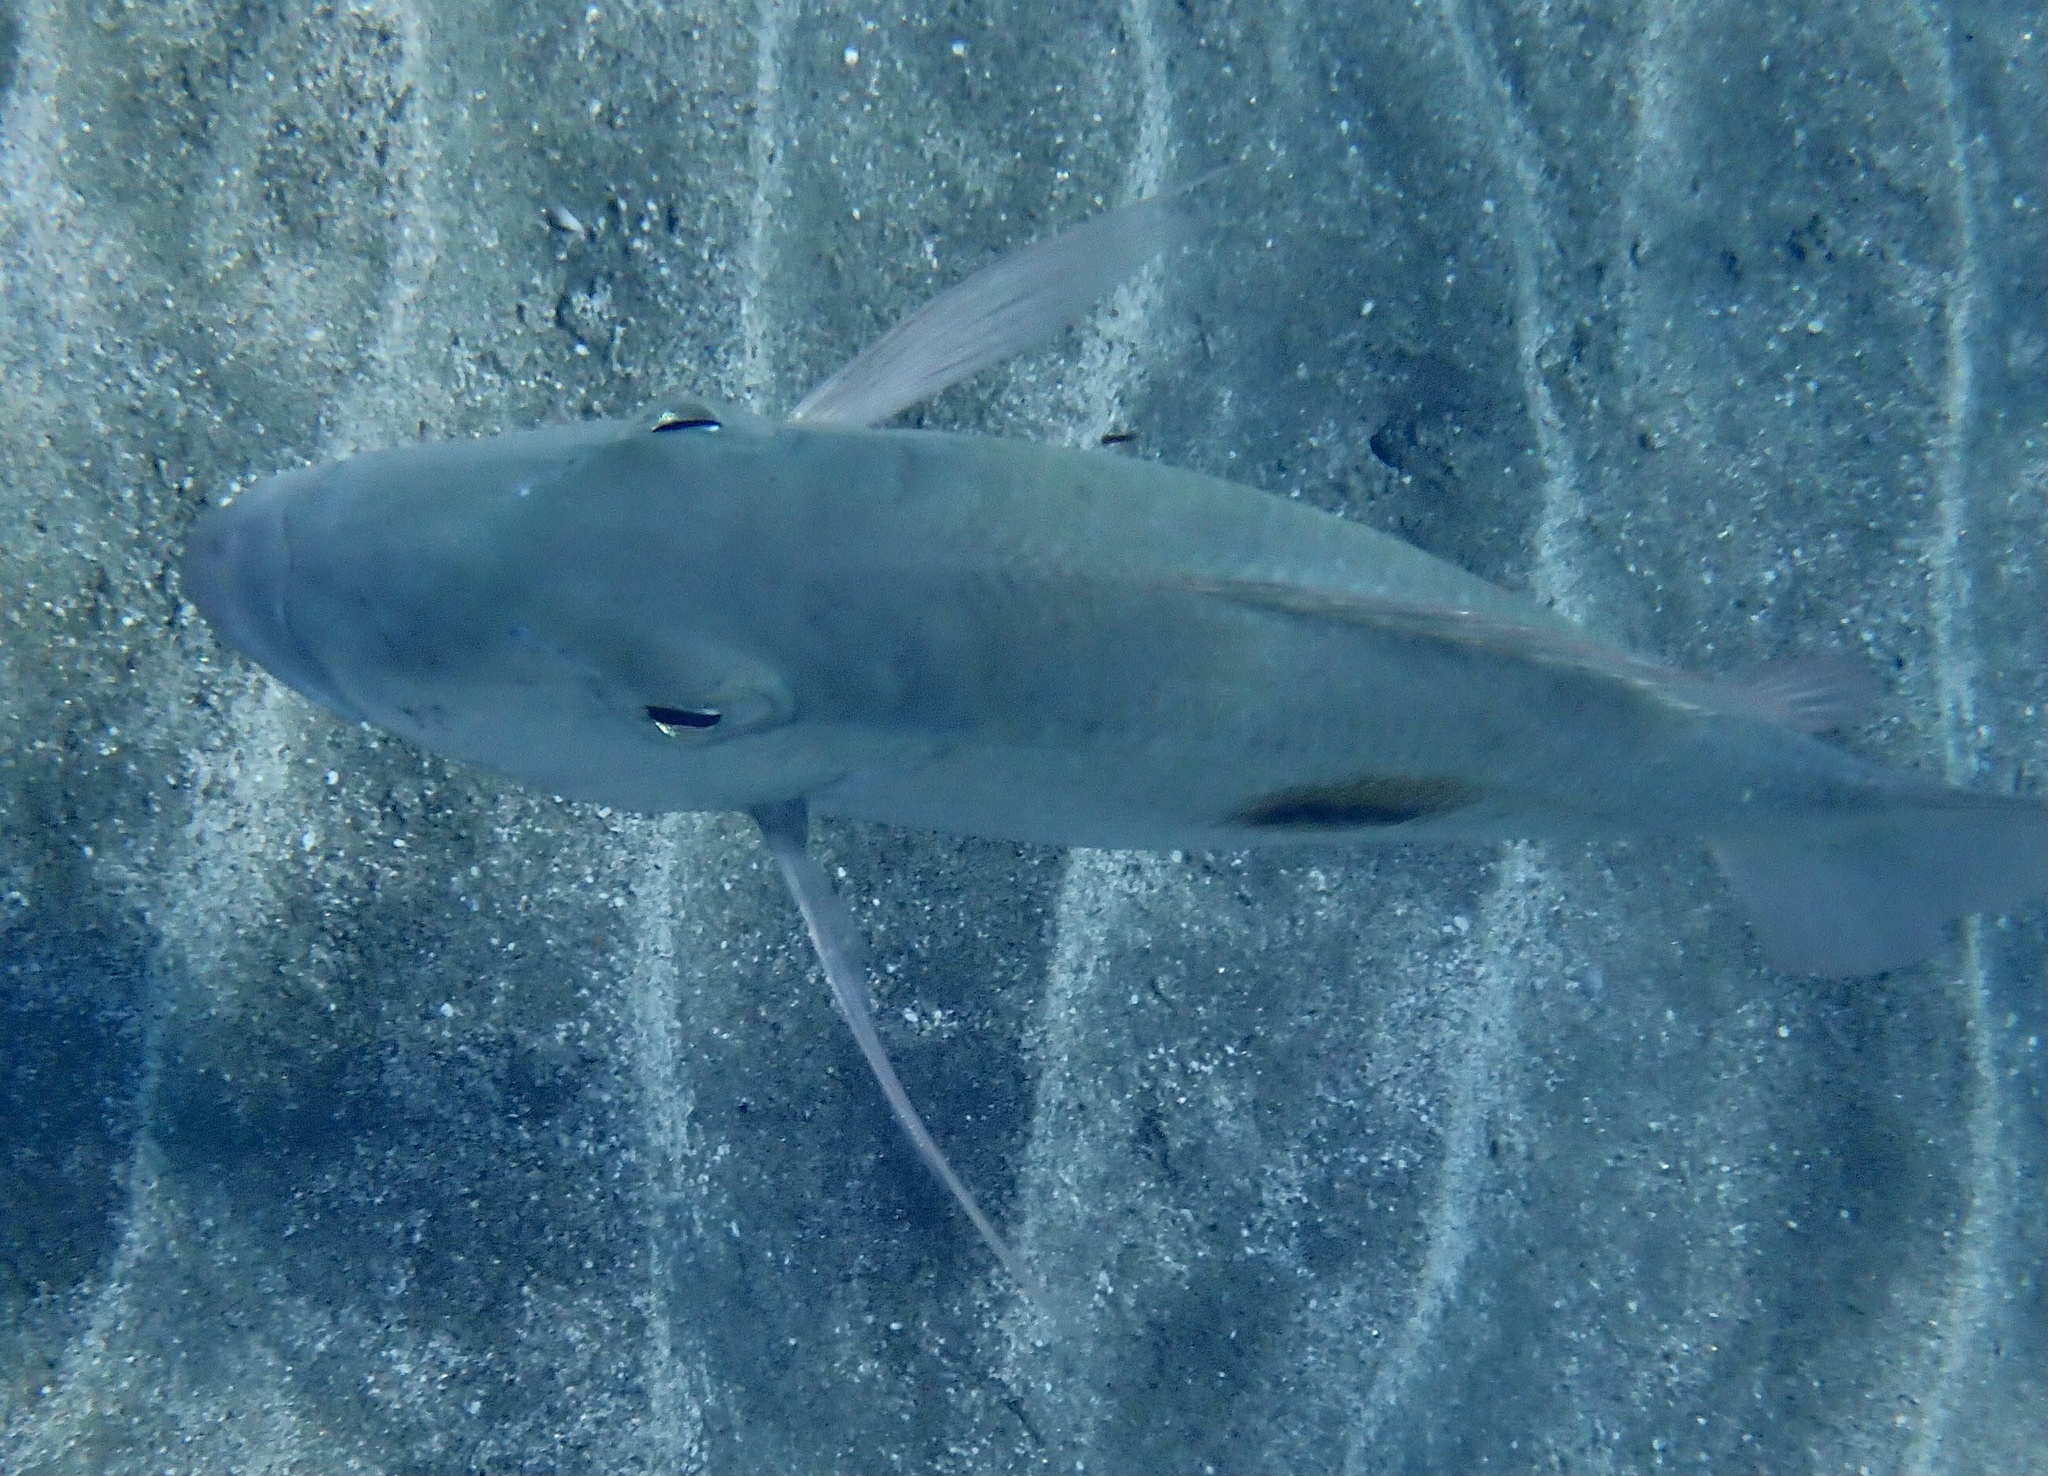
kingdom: Animalia
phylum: Chordata
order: Perciformes
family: Lethrinidae
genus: Lethrinus
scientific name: Lethrinus harak
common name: Blackspot emperor
